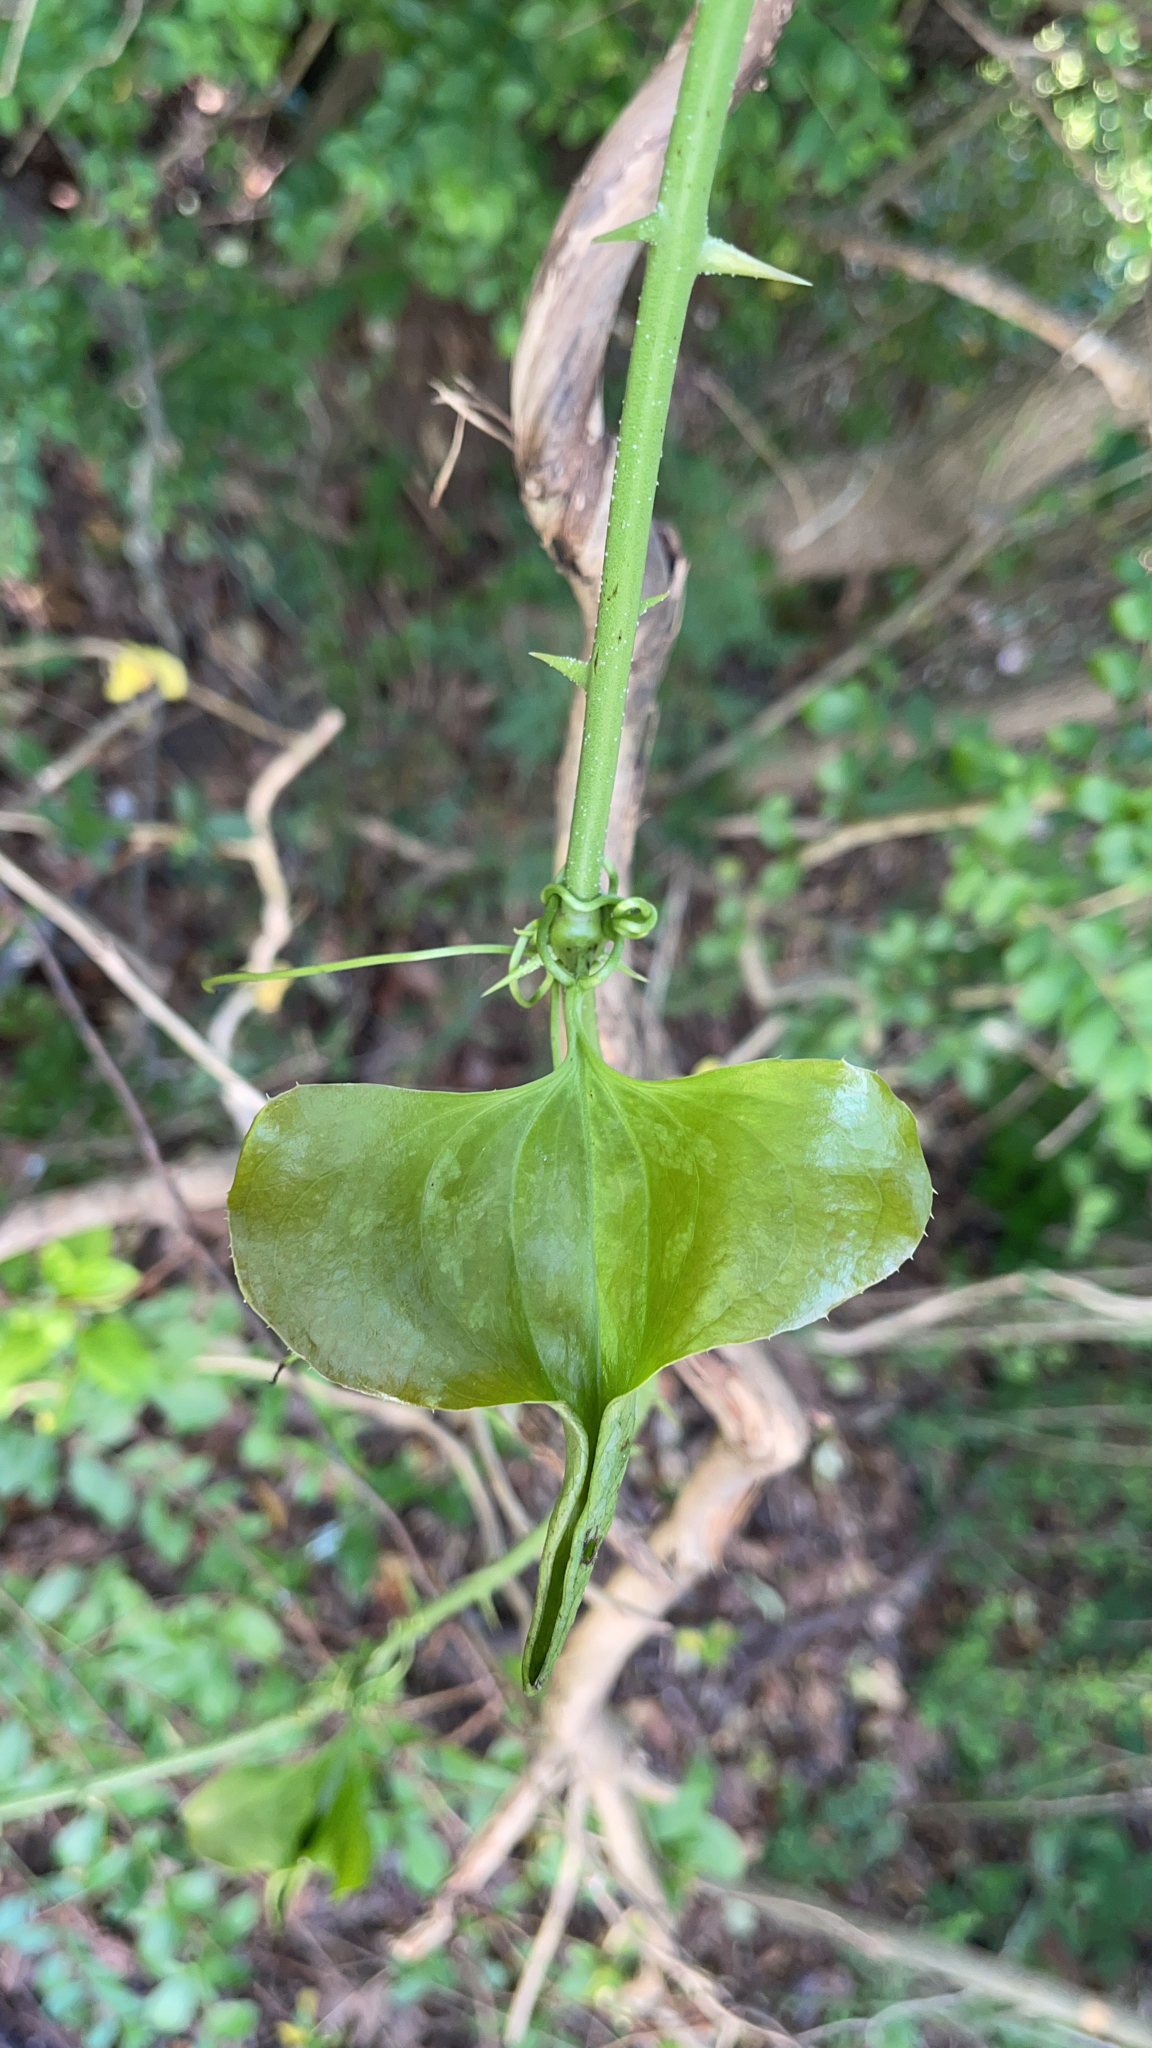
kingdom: Plantae
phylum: Tracheophyta
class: Liliopsida
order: Liliales
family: Smilacaceae
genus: Smilax
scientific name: Smilax bona-nox
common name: Catbrier
